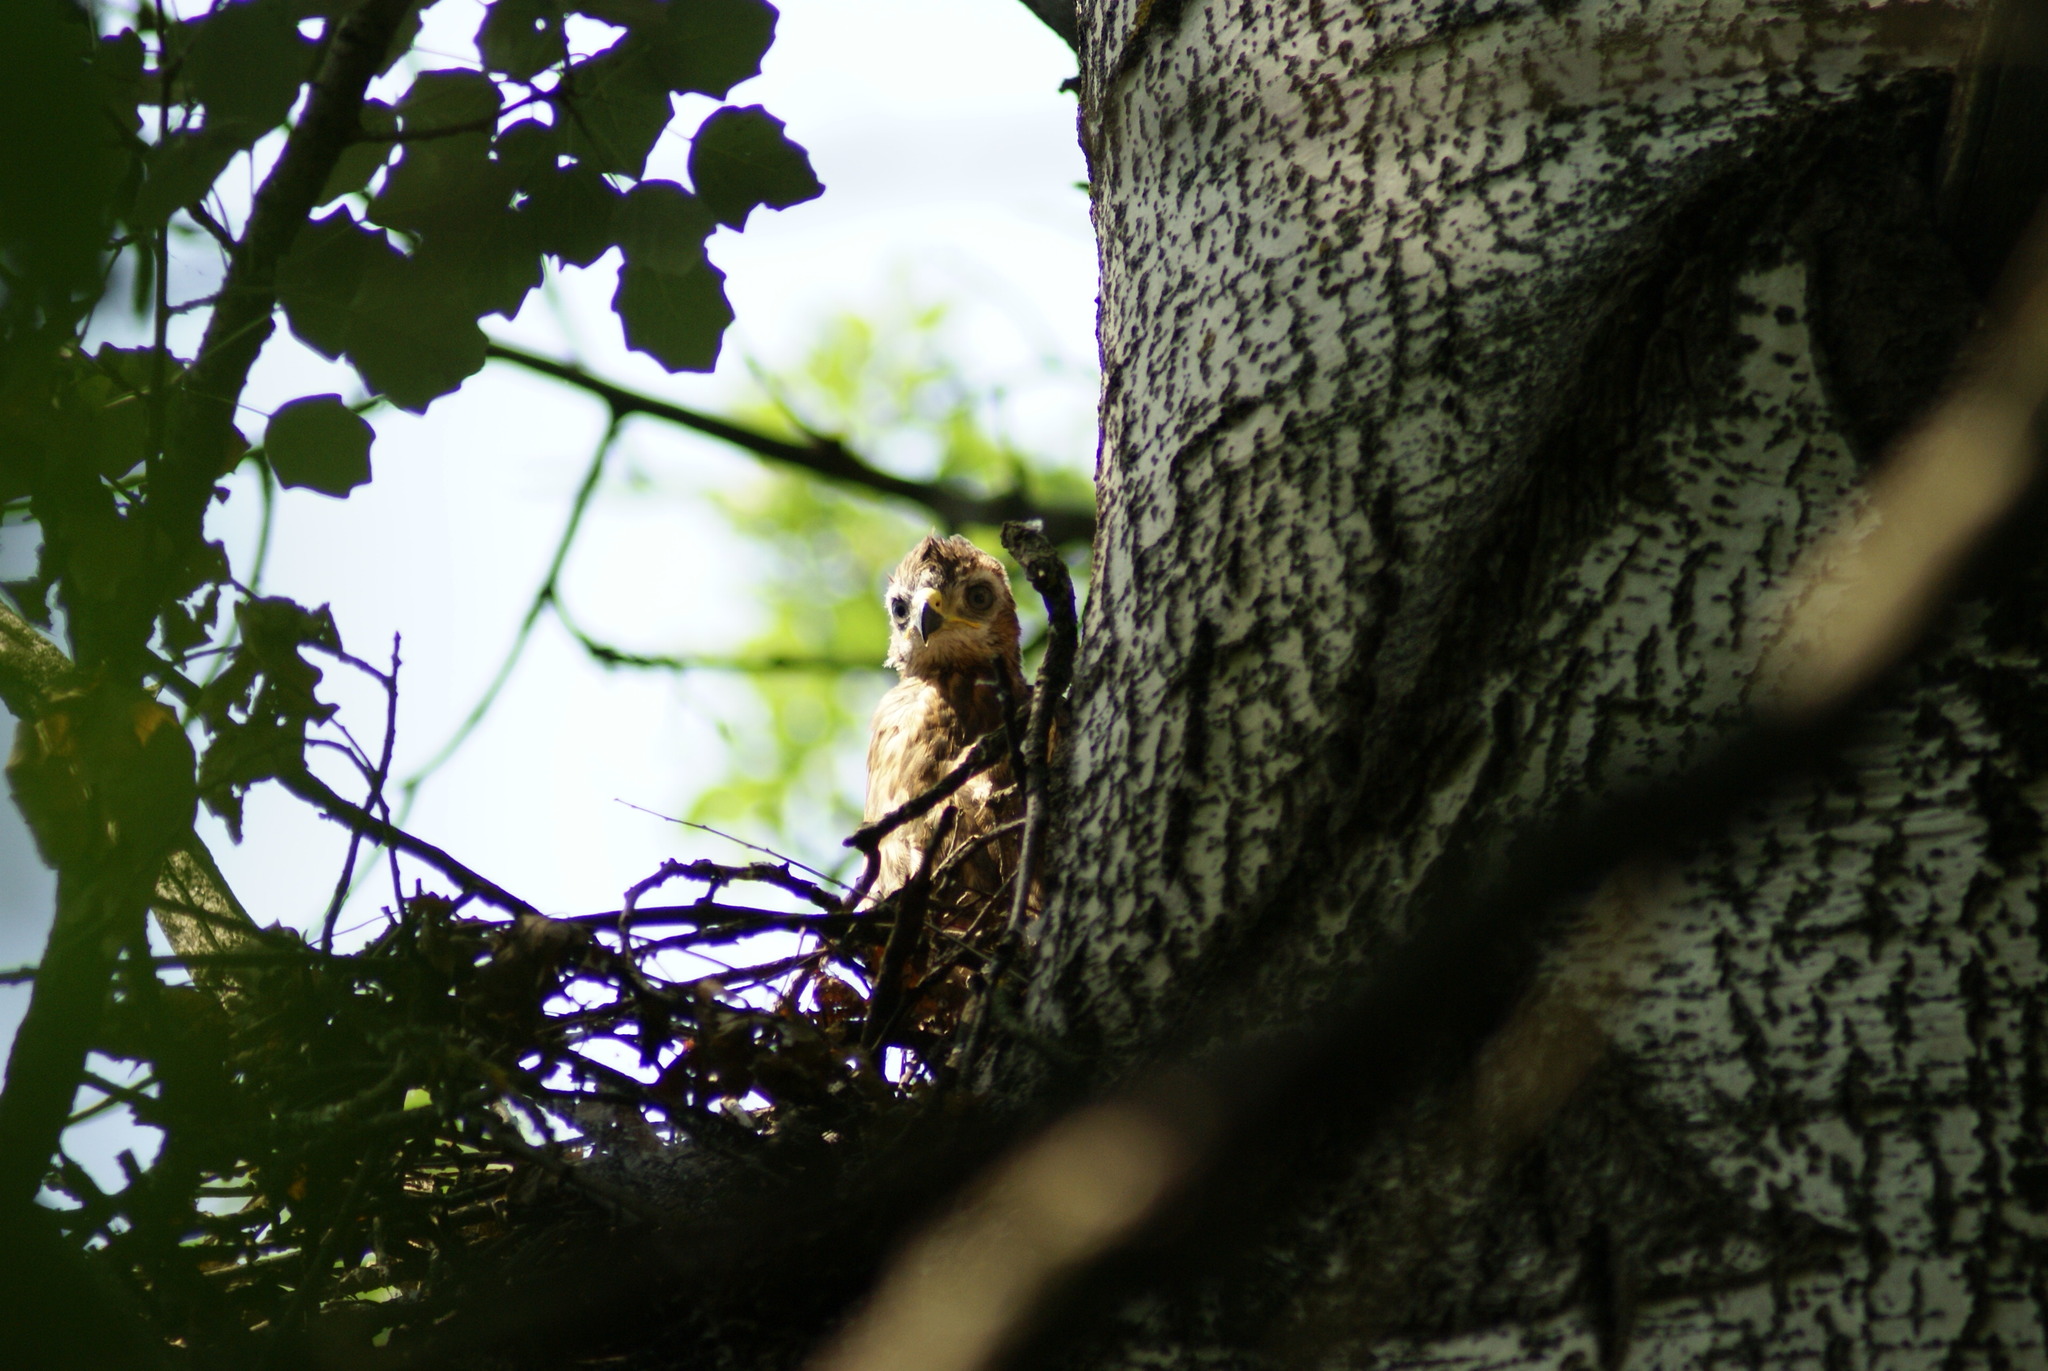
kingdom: Animalia
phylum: Chordata
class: Aves
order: Accipitriformes
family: Accipitridae
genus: Buteo
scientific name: Buteo buteo
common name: Common buzzard
